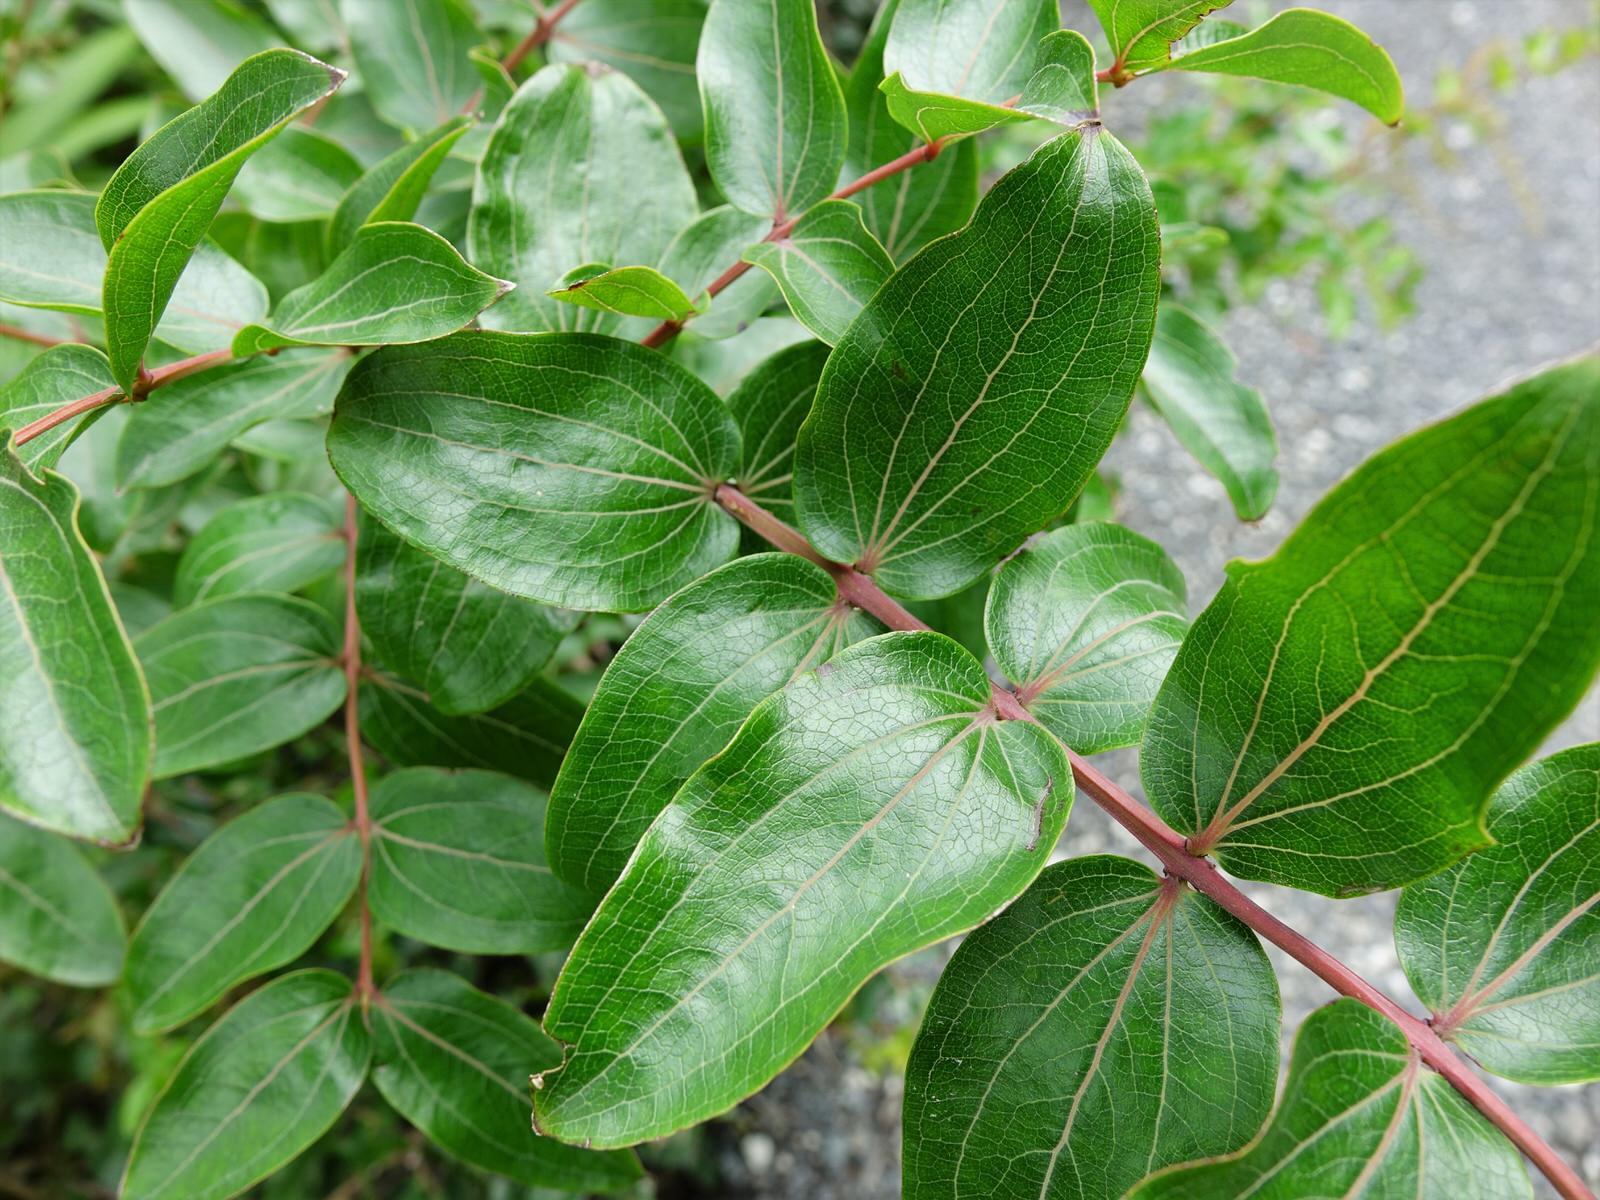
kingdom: Plantae
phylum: Tracheophyta
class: Magnoliopsida
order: Cucurbitales
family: Coriariaceae
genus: Coriaria
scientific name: Coriaria arborea
